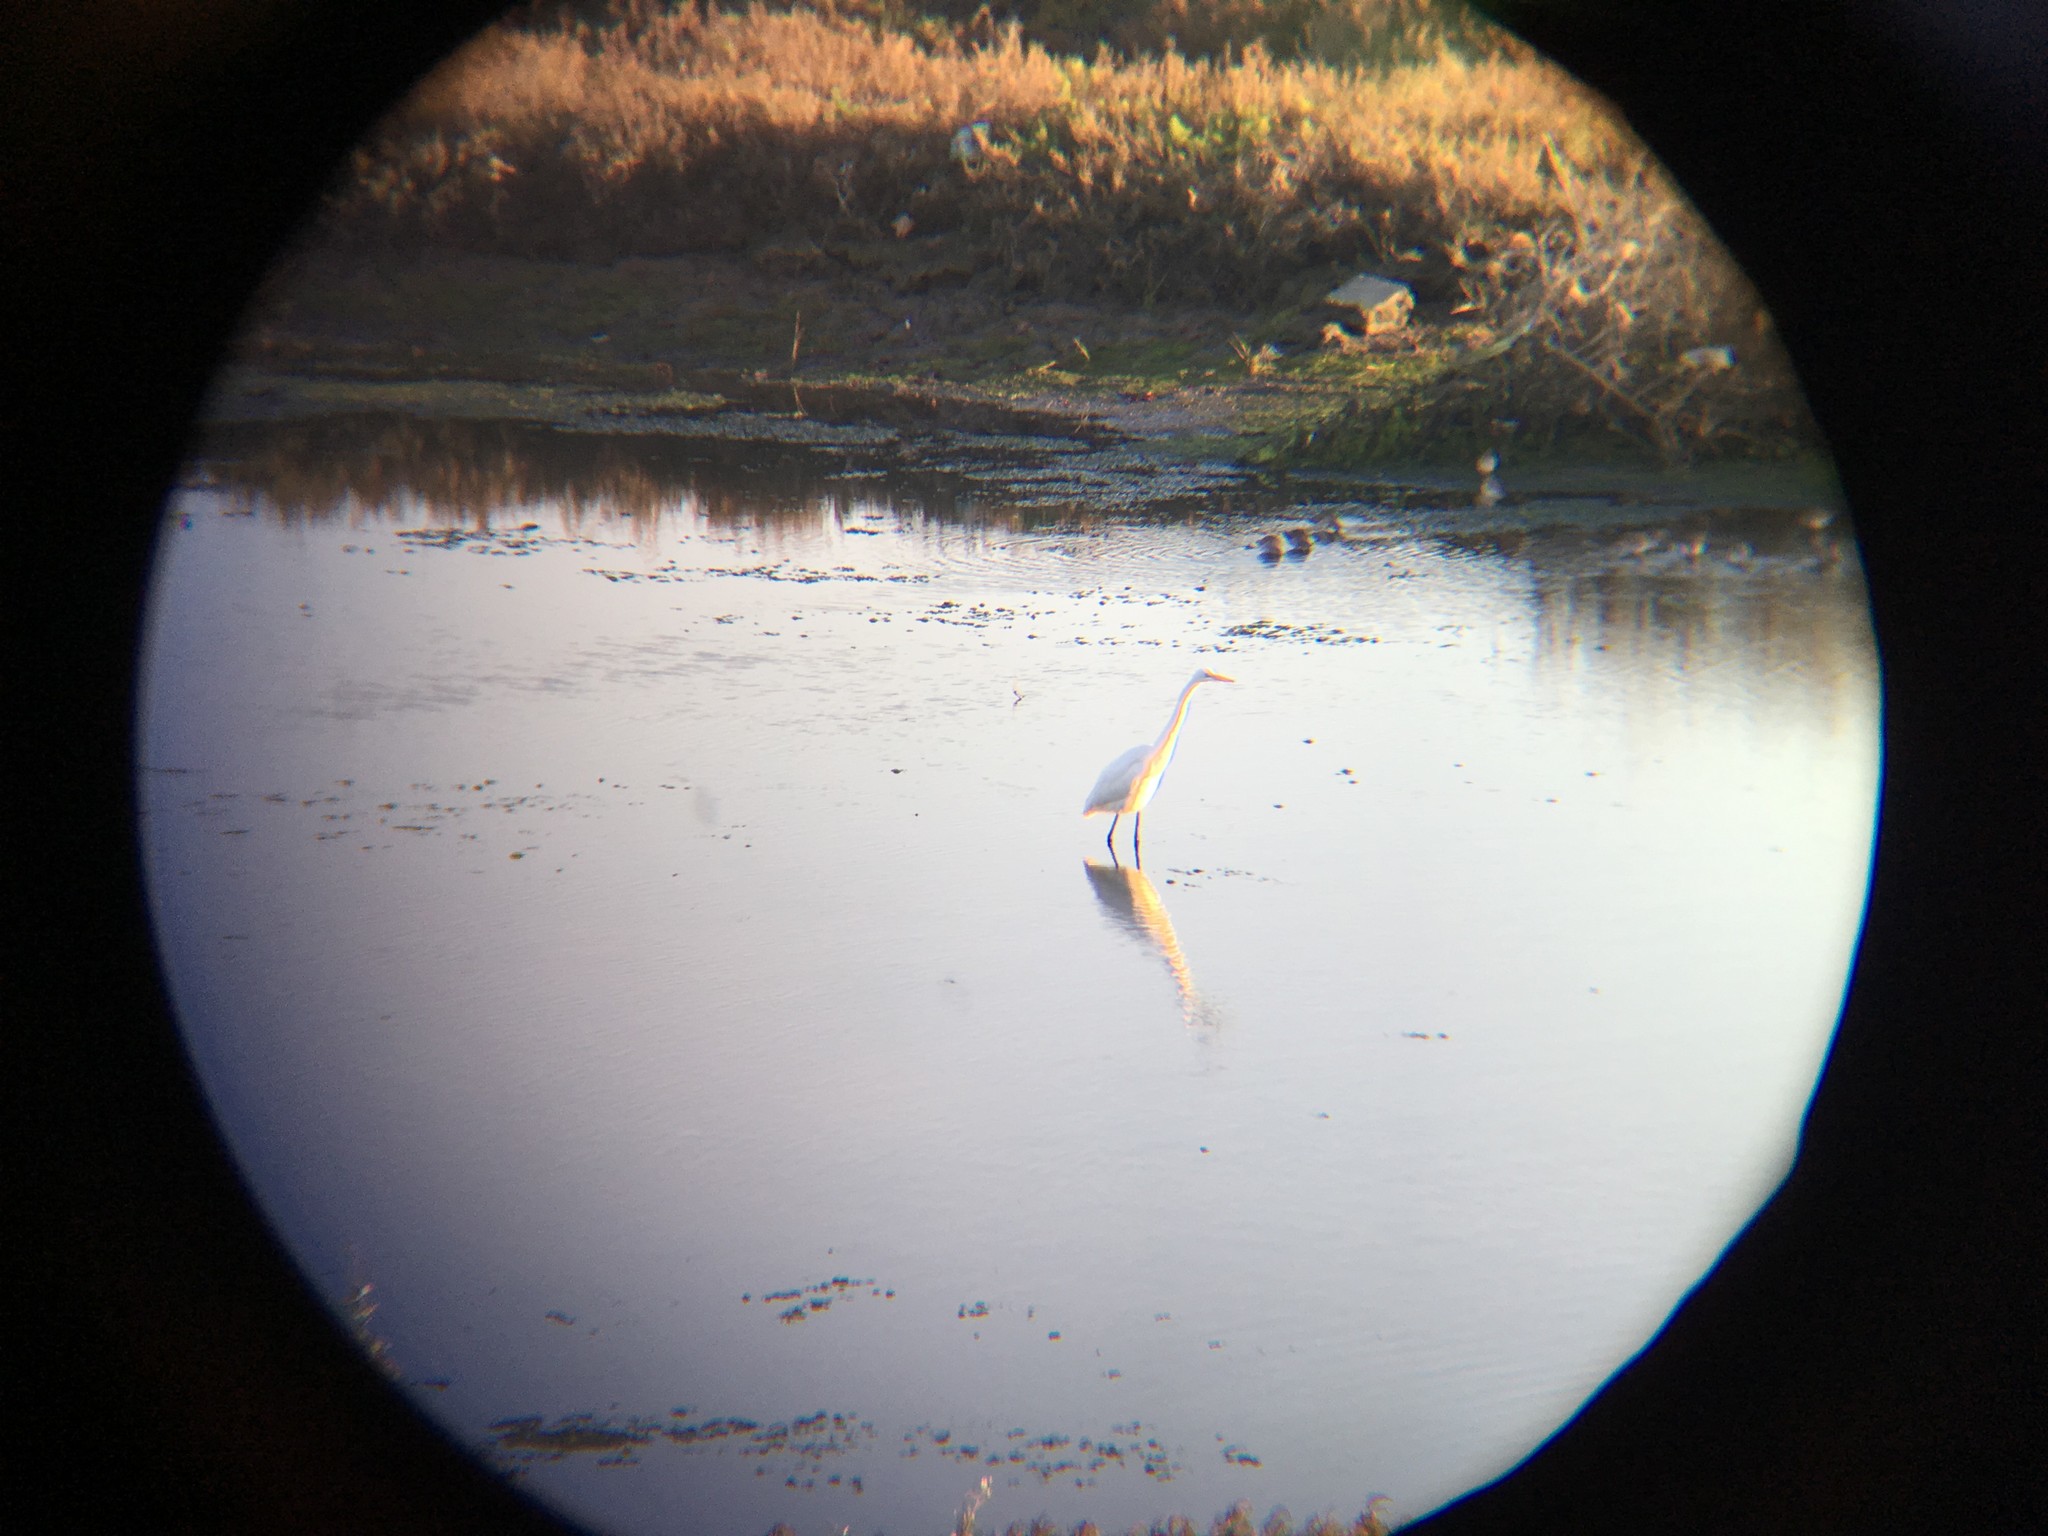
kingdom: Animalia
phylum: Chordata
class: Aves
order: Pelecaniformes
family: Ardeidae
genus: Ardea
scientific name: Ardea alba
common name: Great egret
